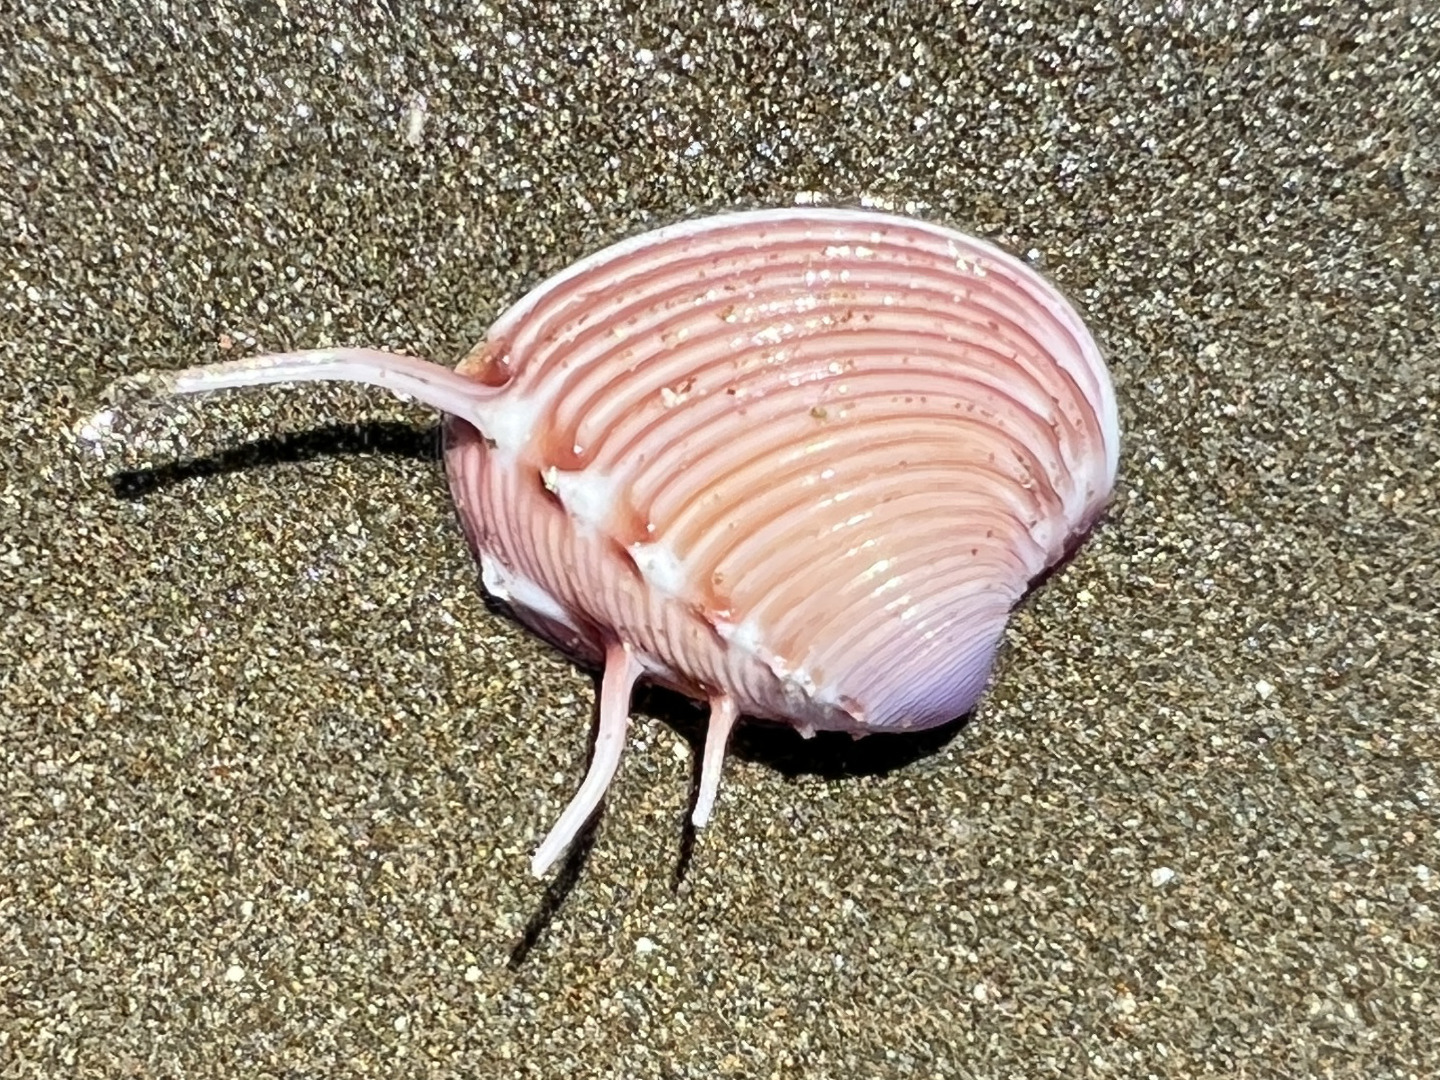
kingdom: Animalia
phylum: Mollusca
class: Bivalvia
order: Venerida
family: Veneridae
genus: Hysteroconcha
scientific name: Hysteroconcha lupanaria
